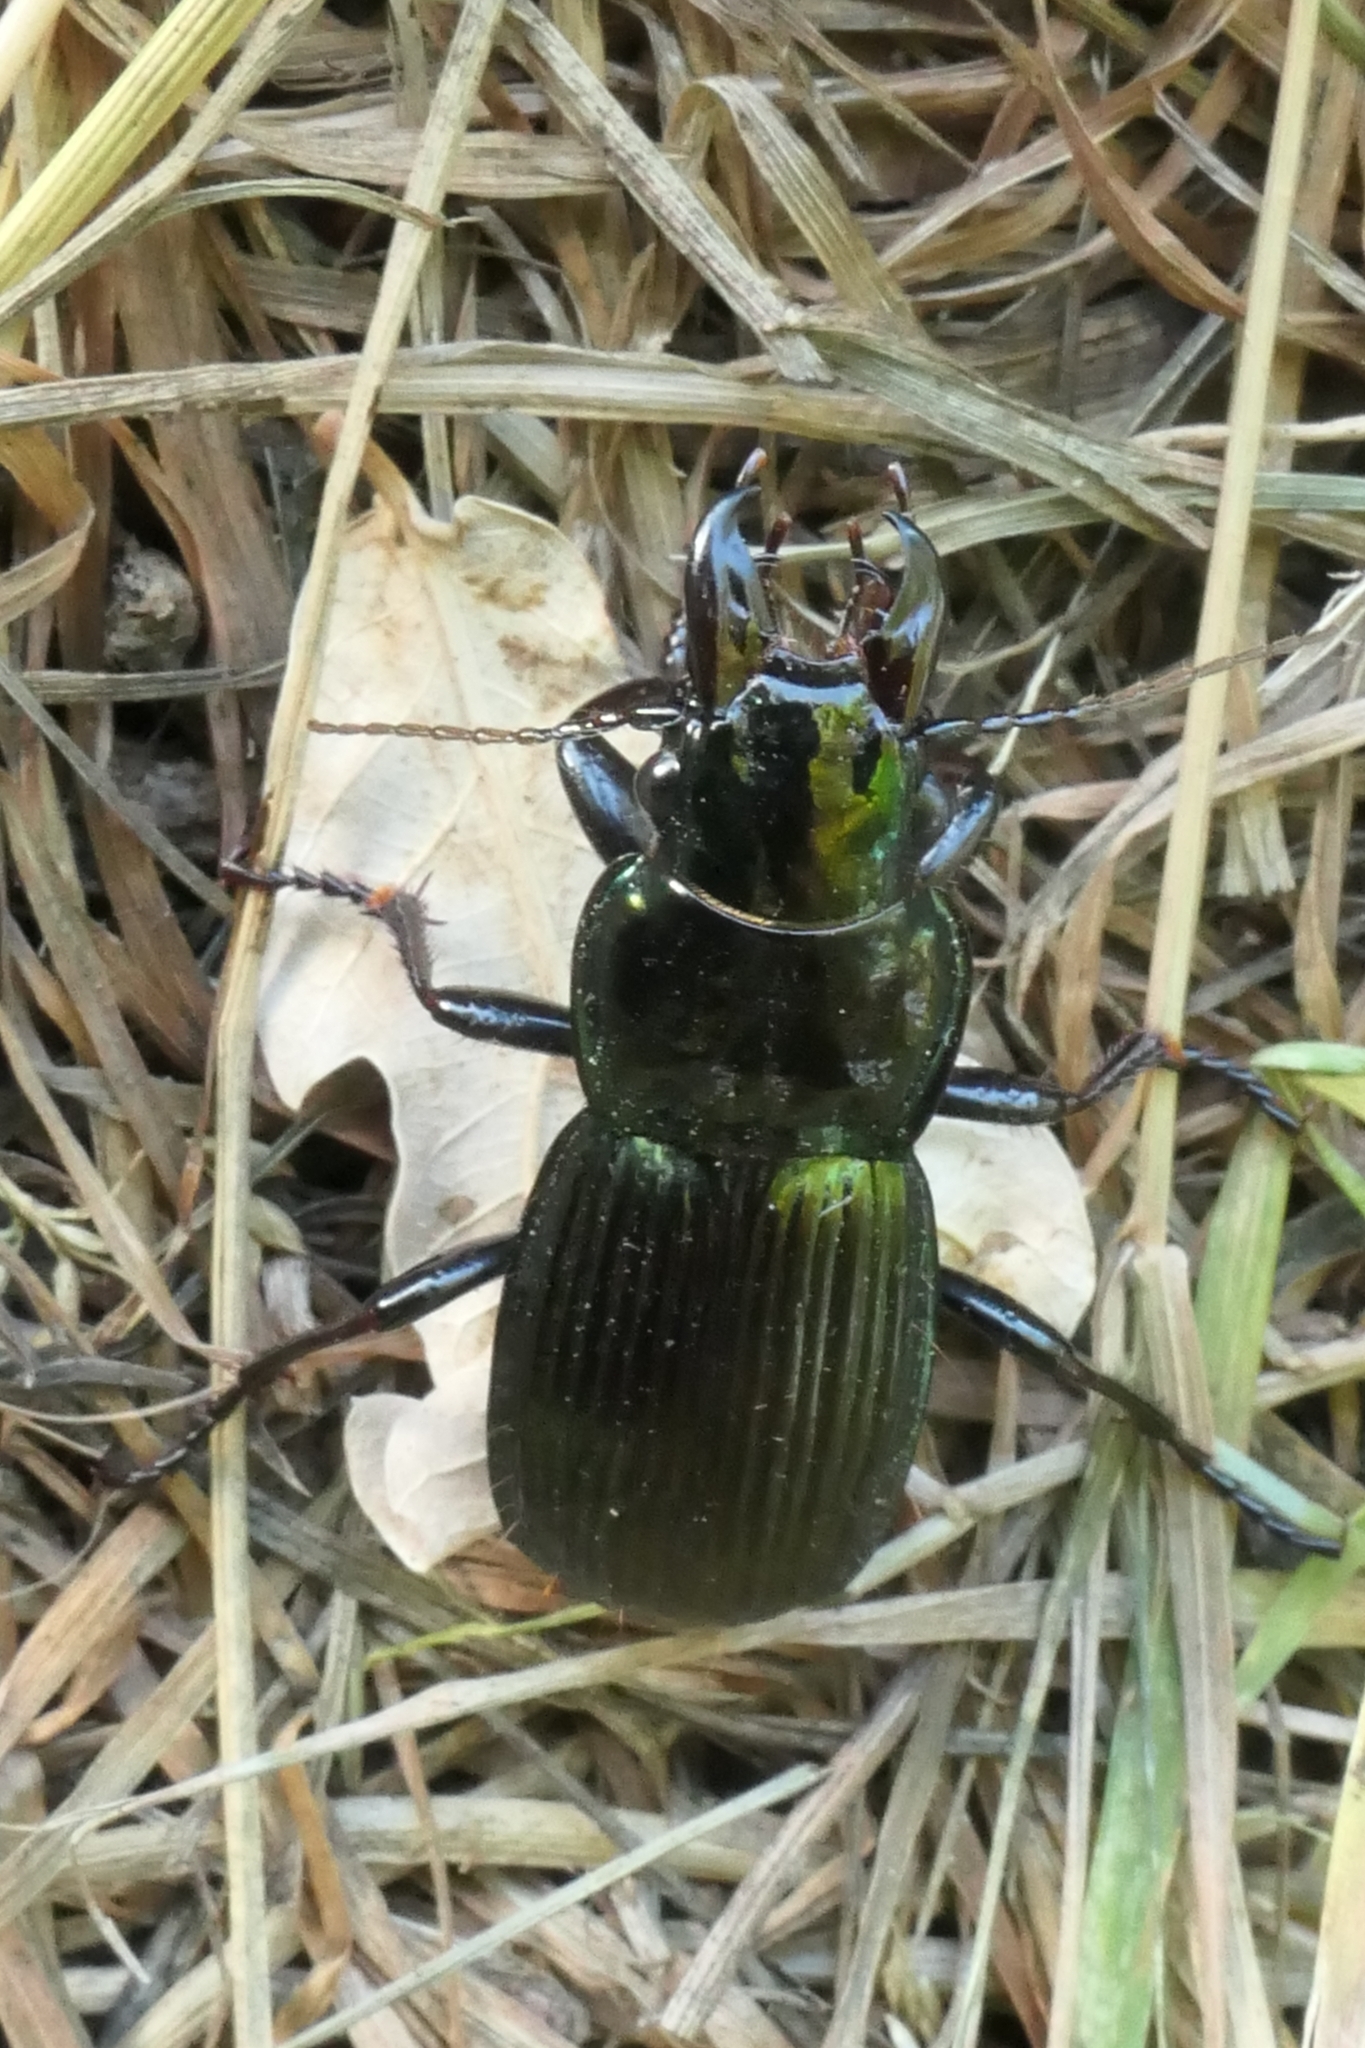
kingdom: Animalia
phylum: Arthropoda
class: Insecta
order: Coleoptera
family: Carabidae
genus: Megadromus
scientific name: Megadromus antarcticus
